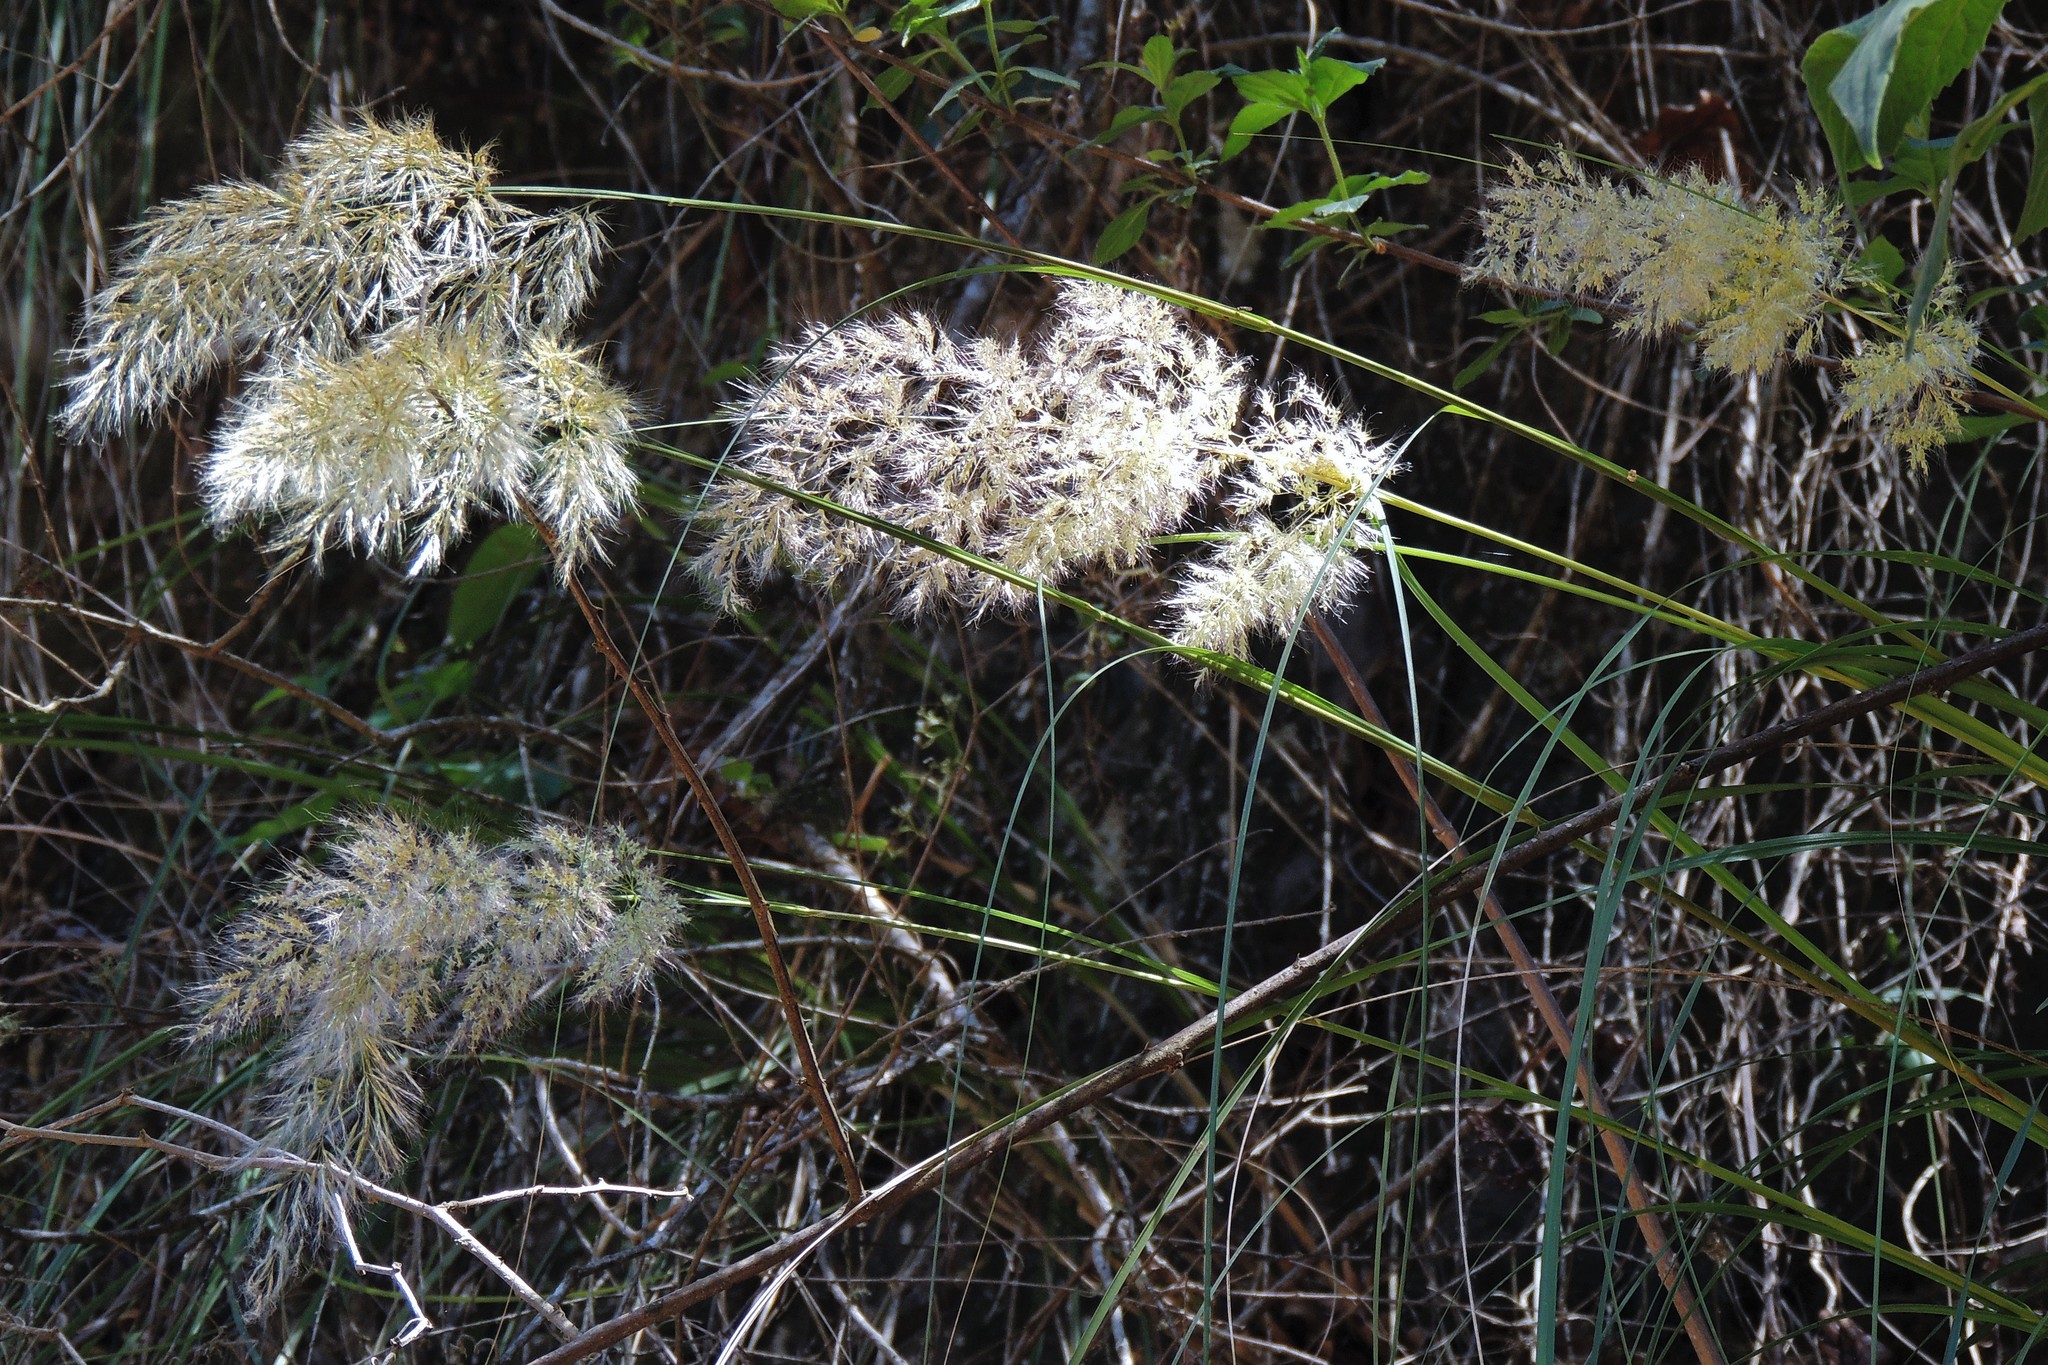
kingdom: Plantae
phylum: Tracheophyta
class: Liliopsida
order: Poales
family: Poaceae
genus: Cortaderia
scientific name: Cortaderia hieronymi
